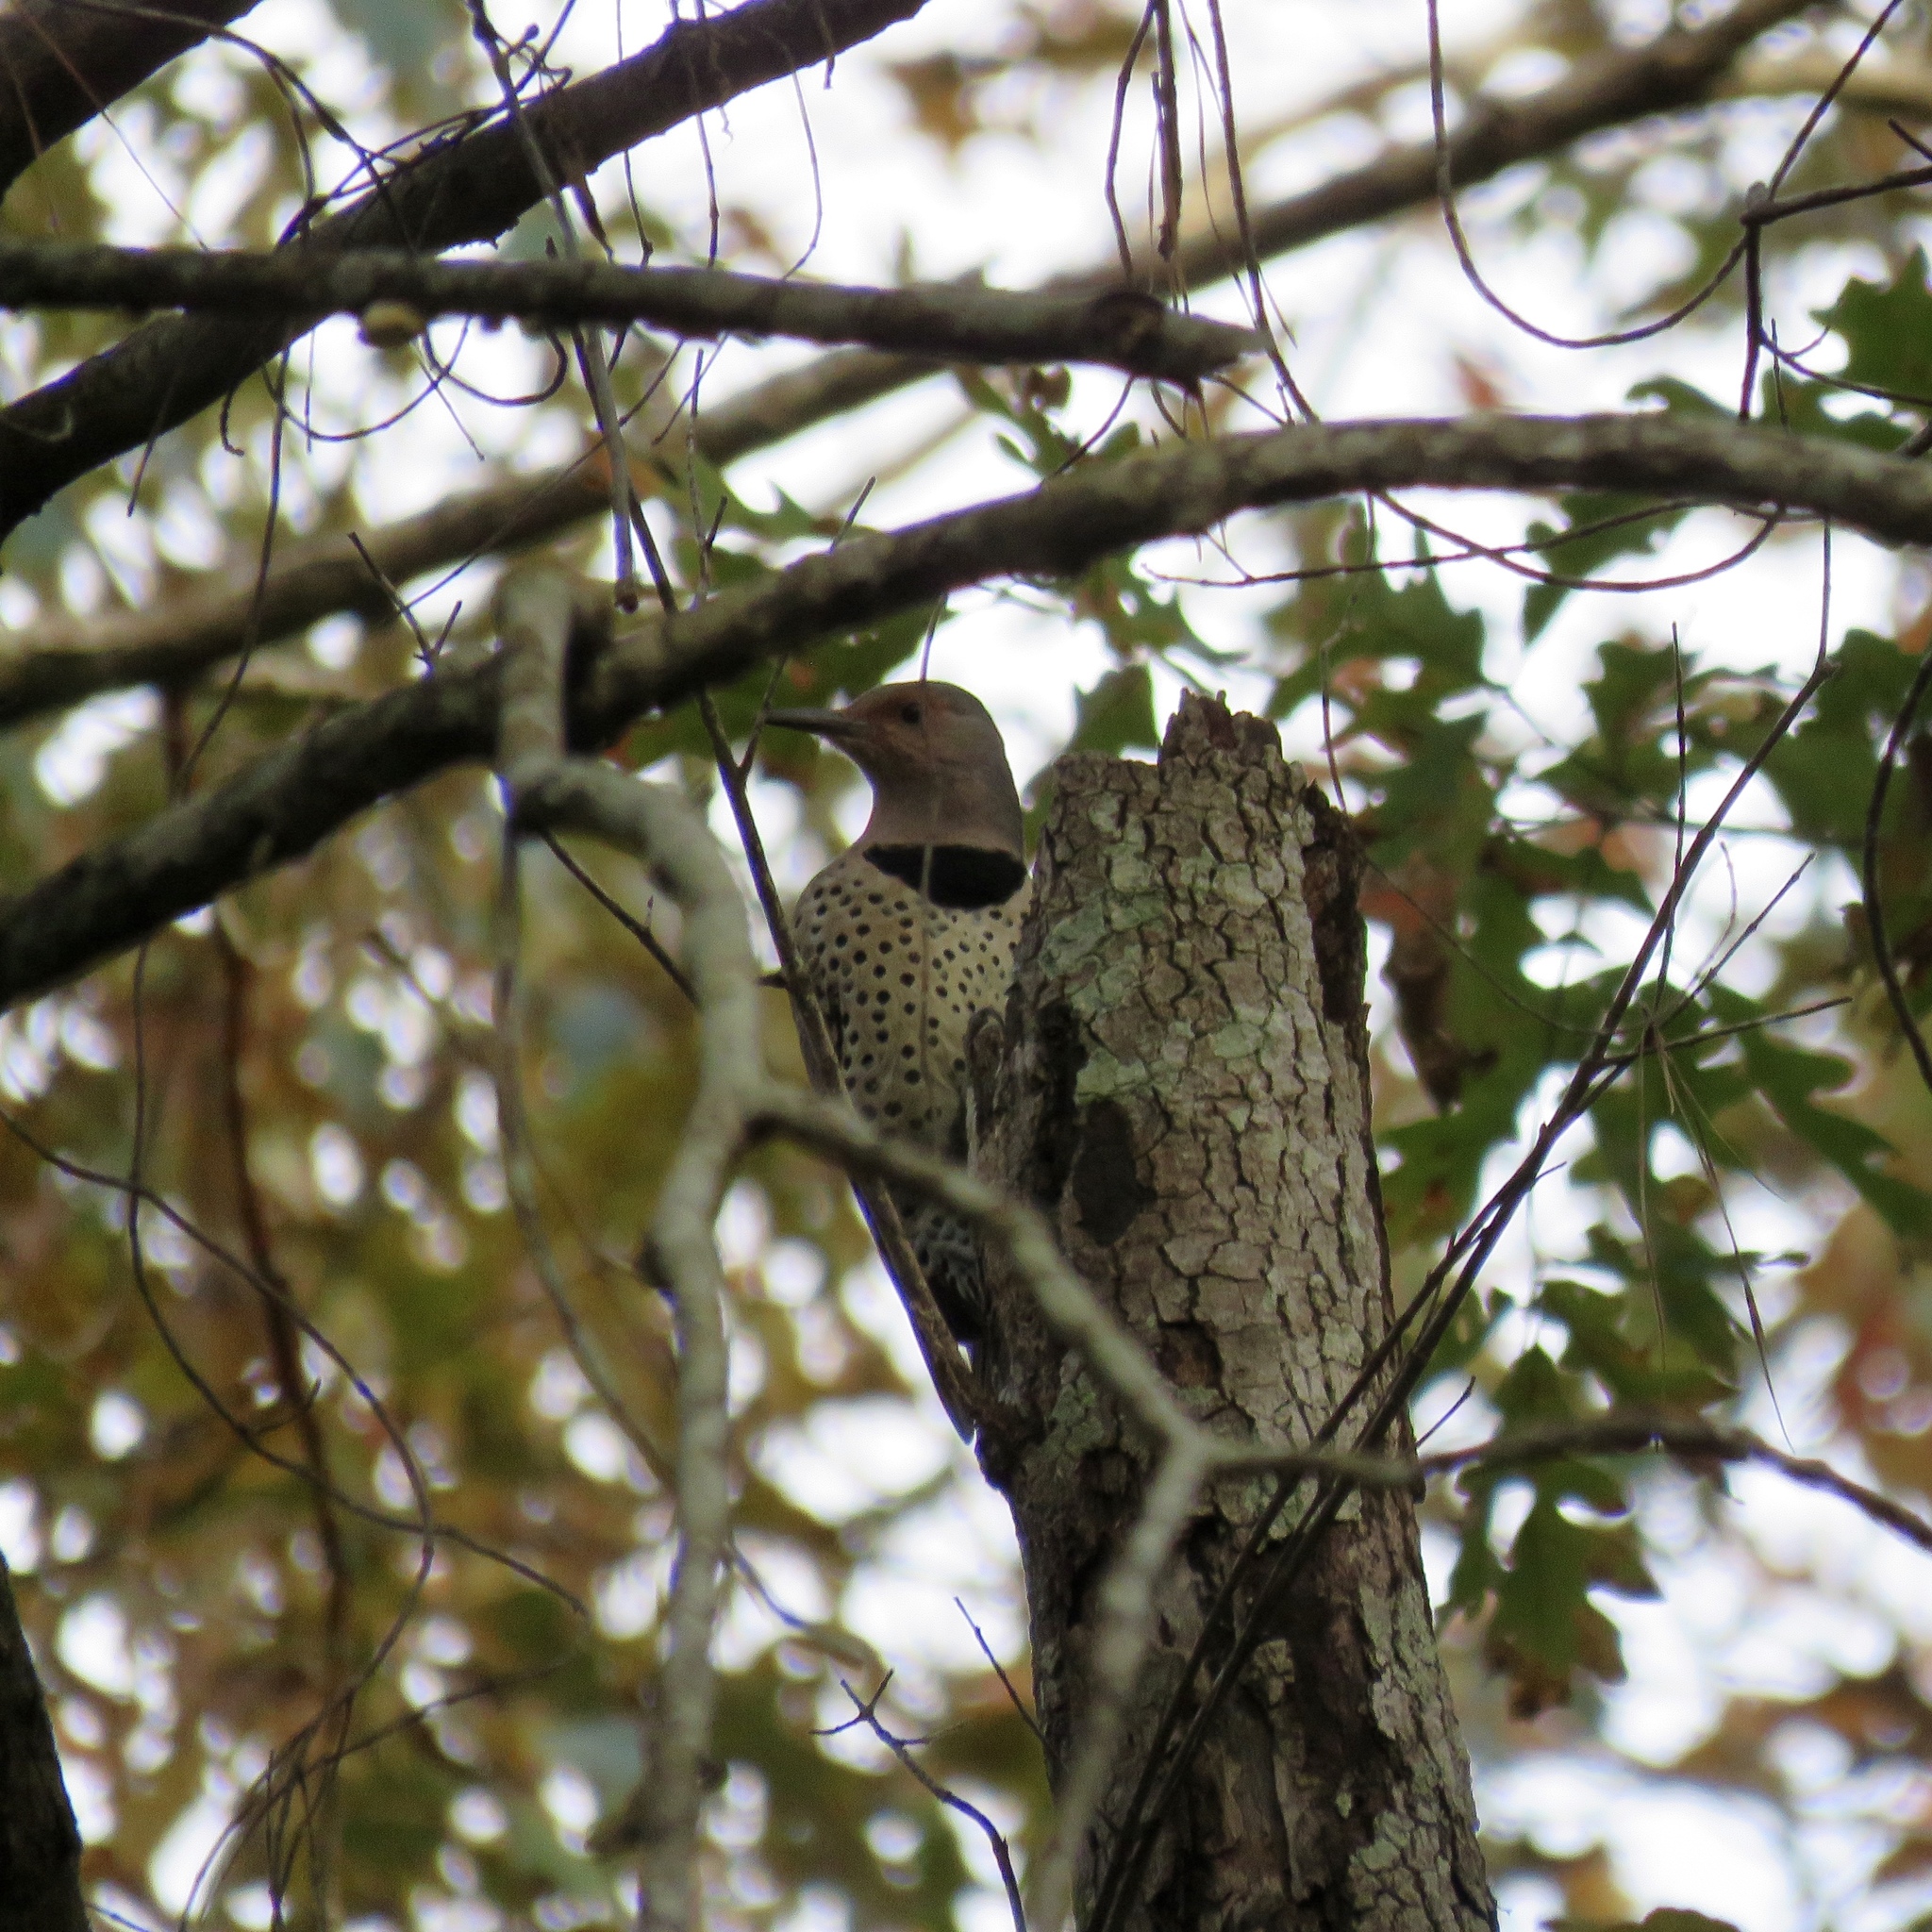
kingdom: Animalia
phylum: Chordata
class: Aves
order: Piciformes
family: Picidae
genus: Colaptes
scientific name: Colaptes auratus
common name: Northern flicker
